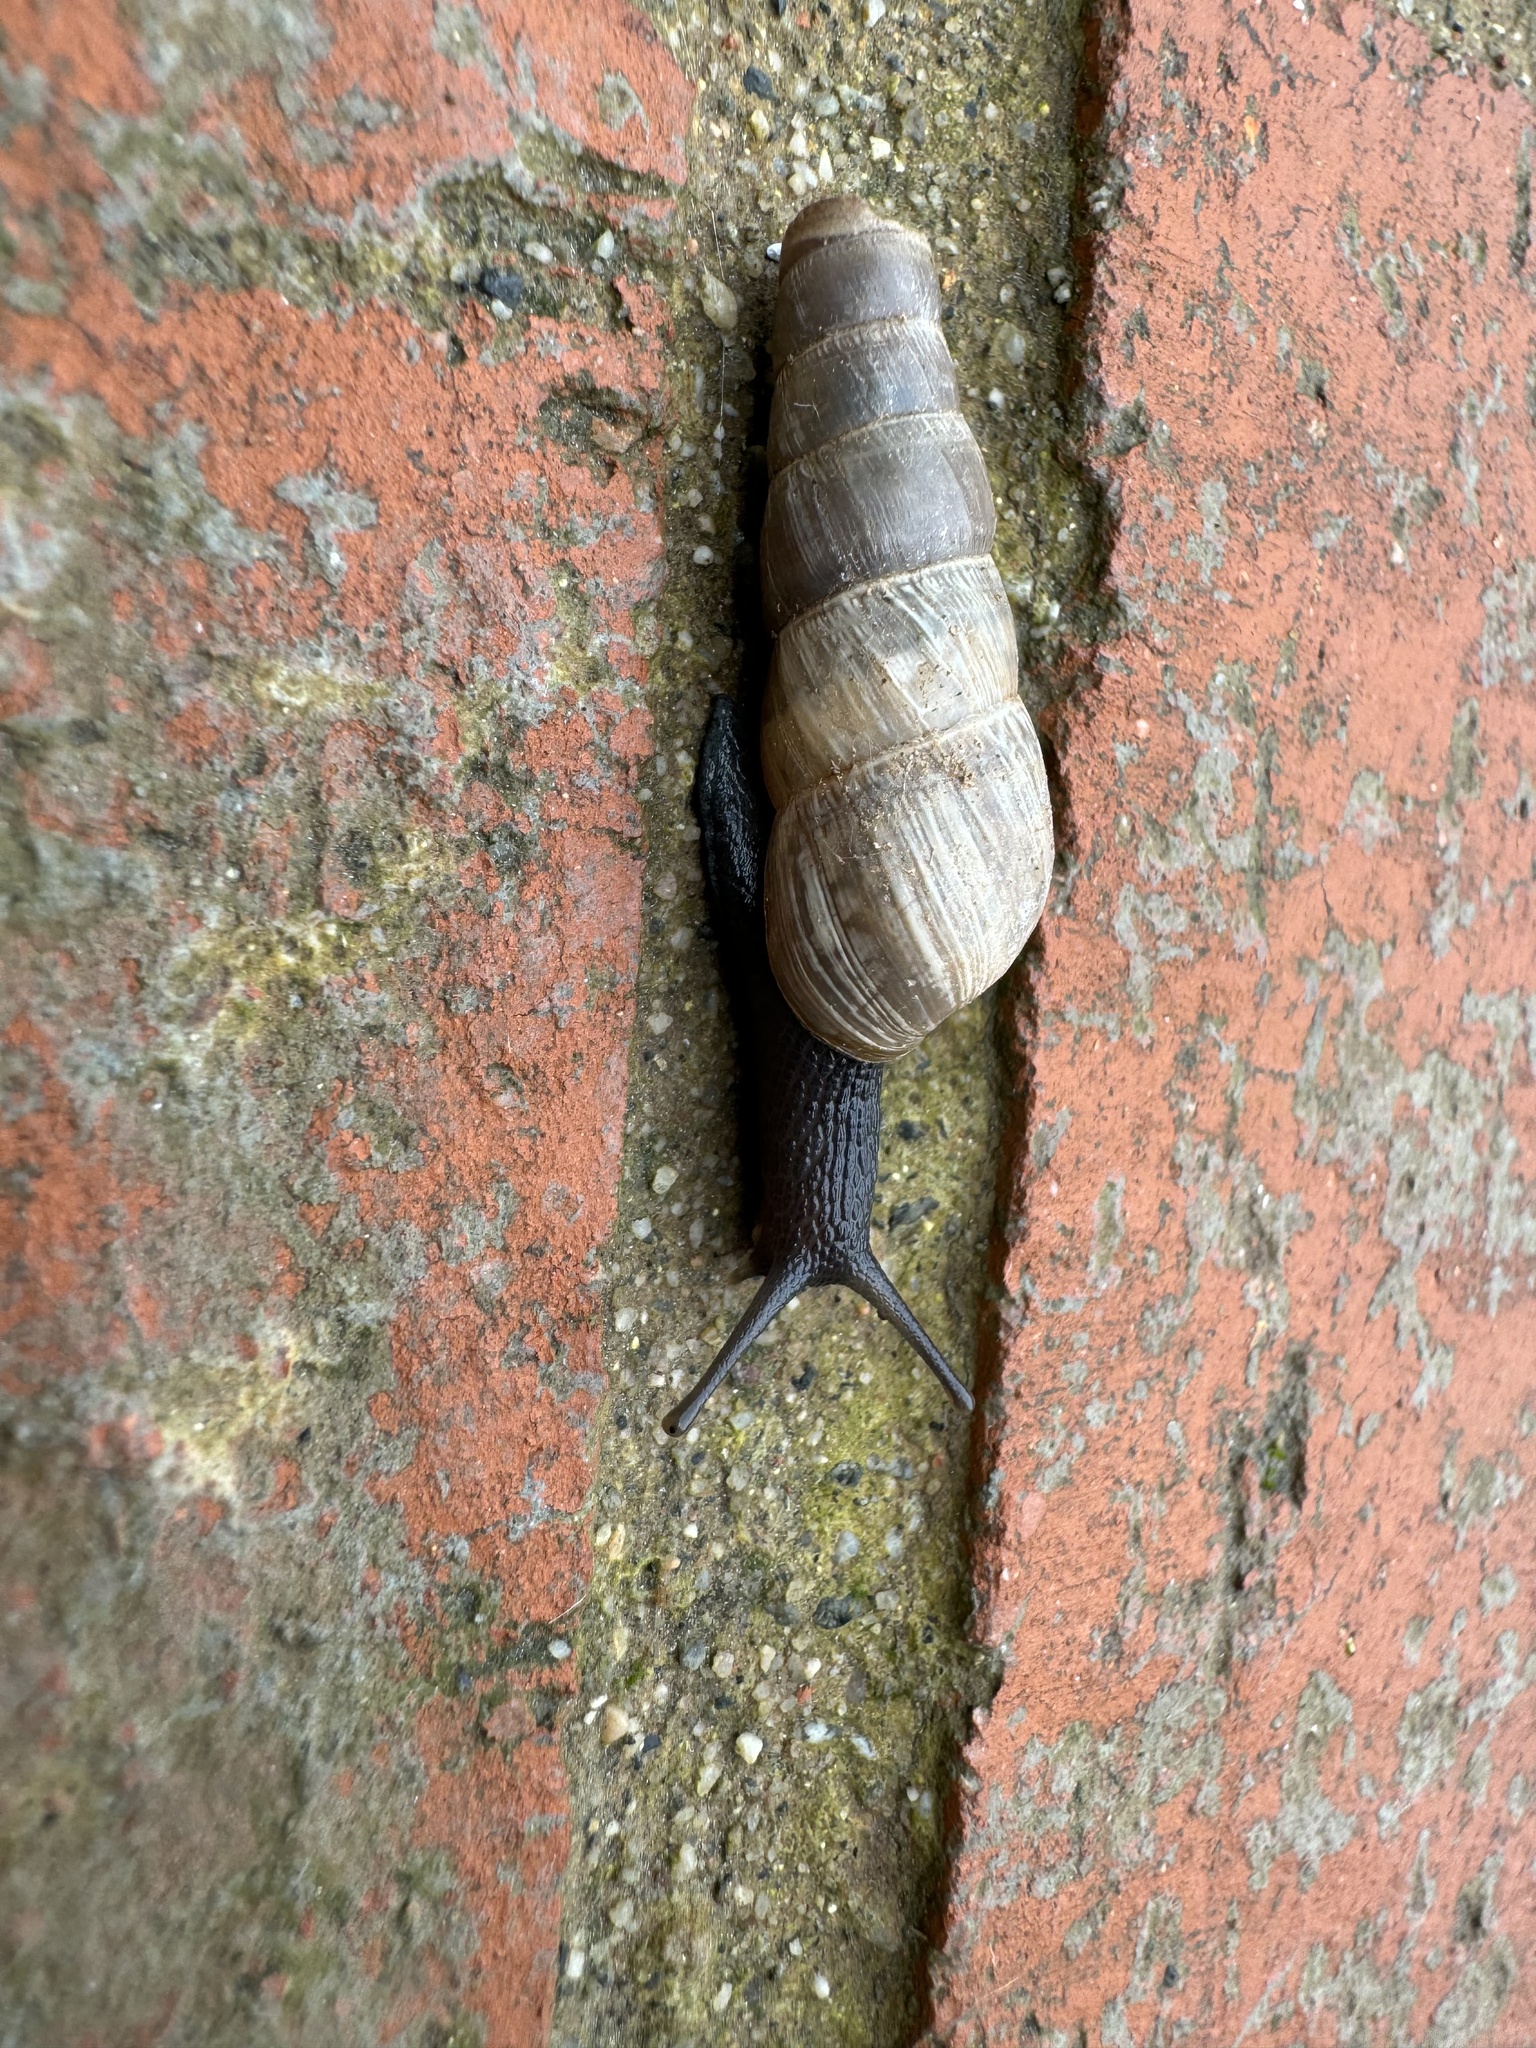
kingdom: Animalia
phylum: Mollusca
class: Gastropoda
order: Stylommatophora
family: Achatinidae
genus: Rumina
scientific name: Rumina decollata
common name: Decollate snail
